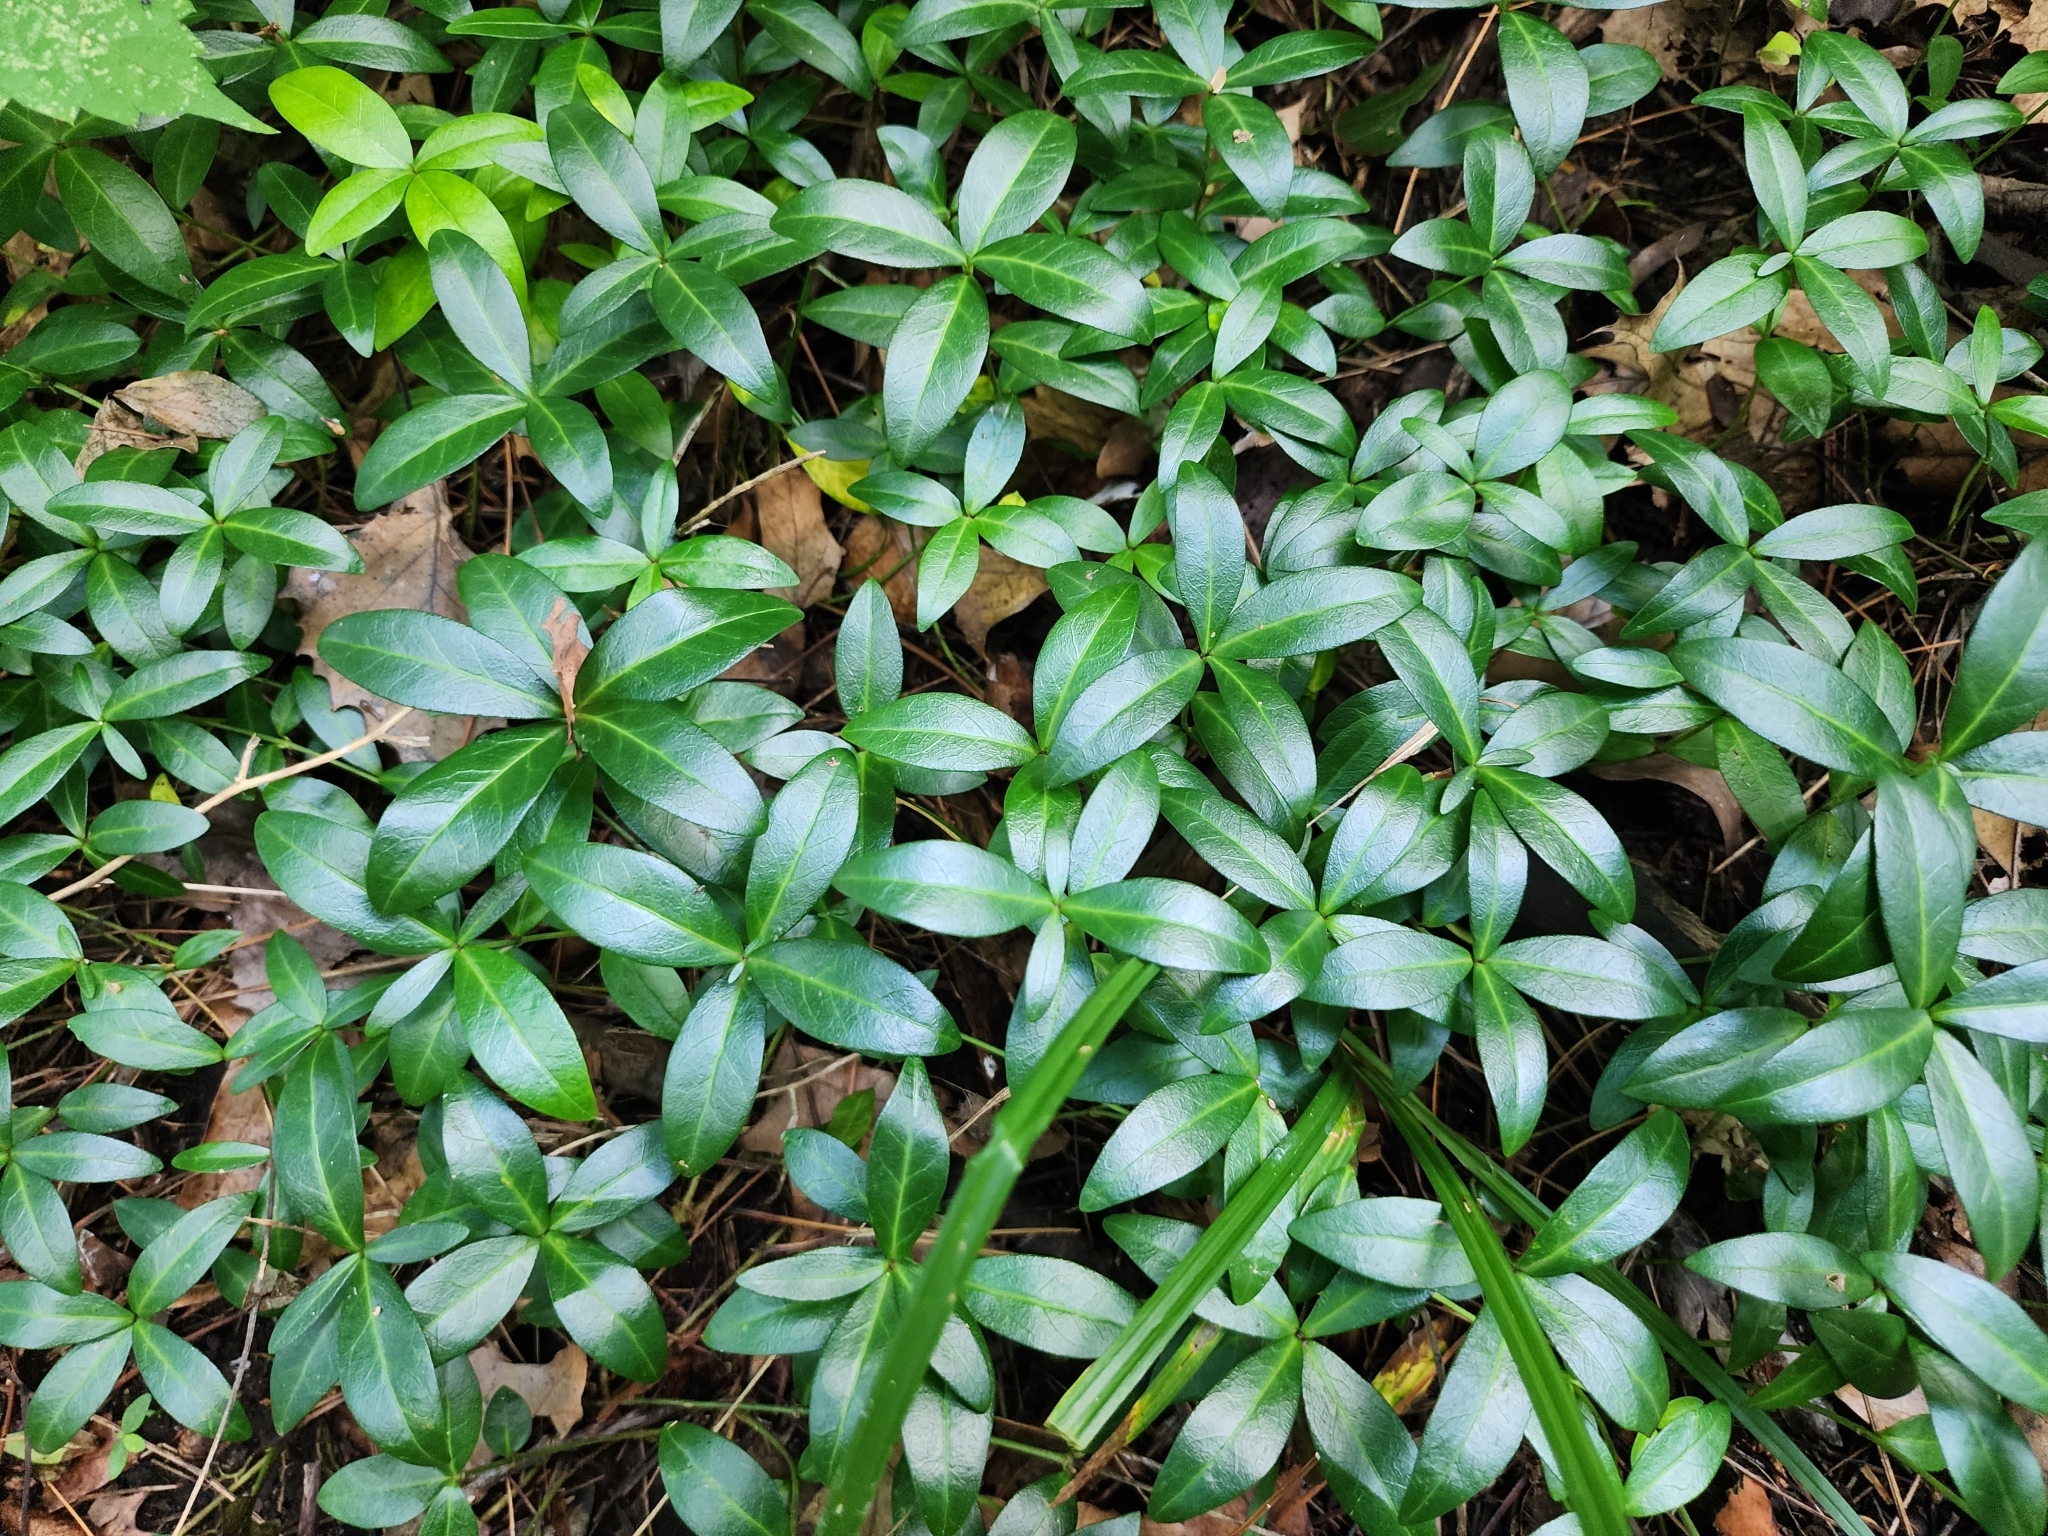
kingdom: Plantae
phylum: Tracheophyta
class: Magnoliopsida
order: Gentianales
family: Apocynaceae
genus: Vinca
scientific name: Vinca minor
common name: Lesser periwinkle
